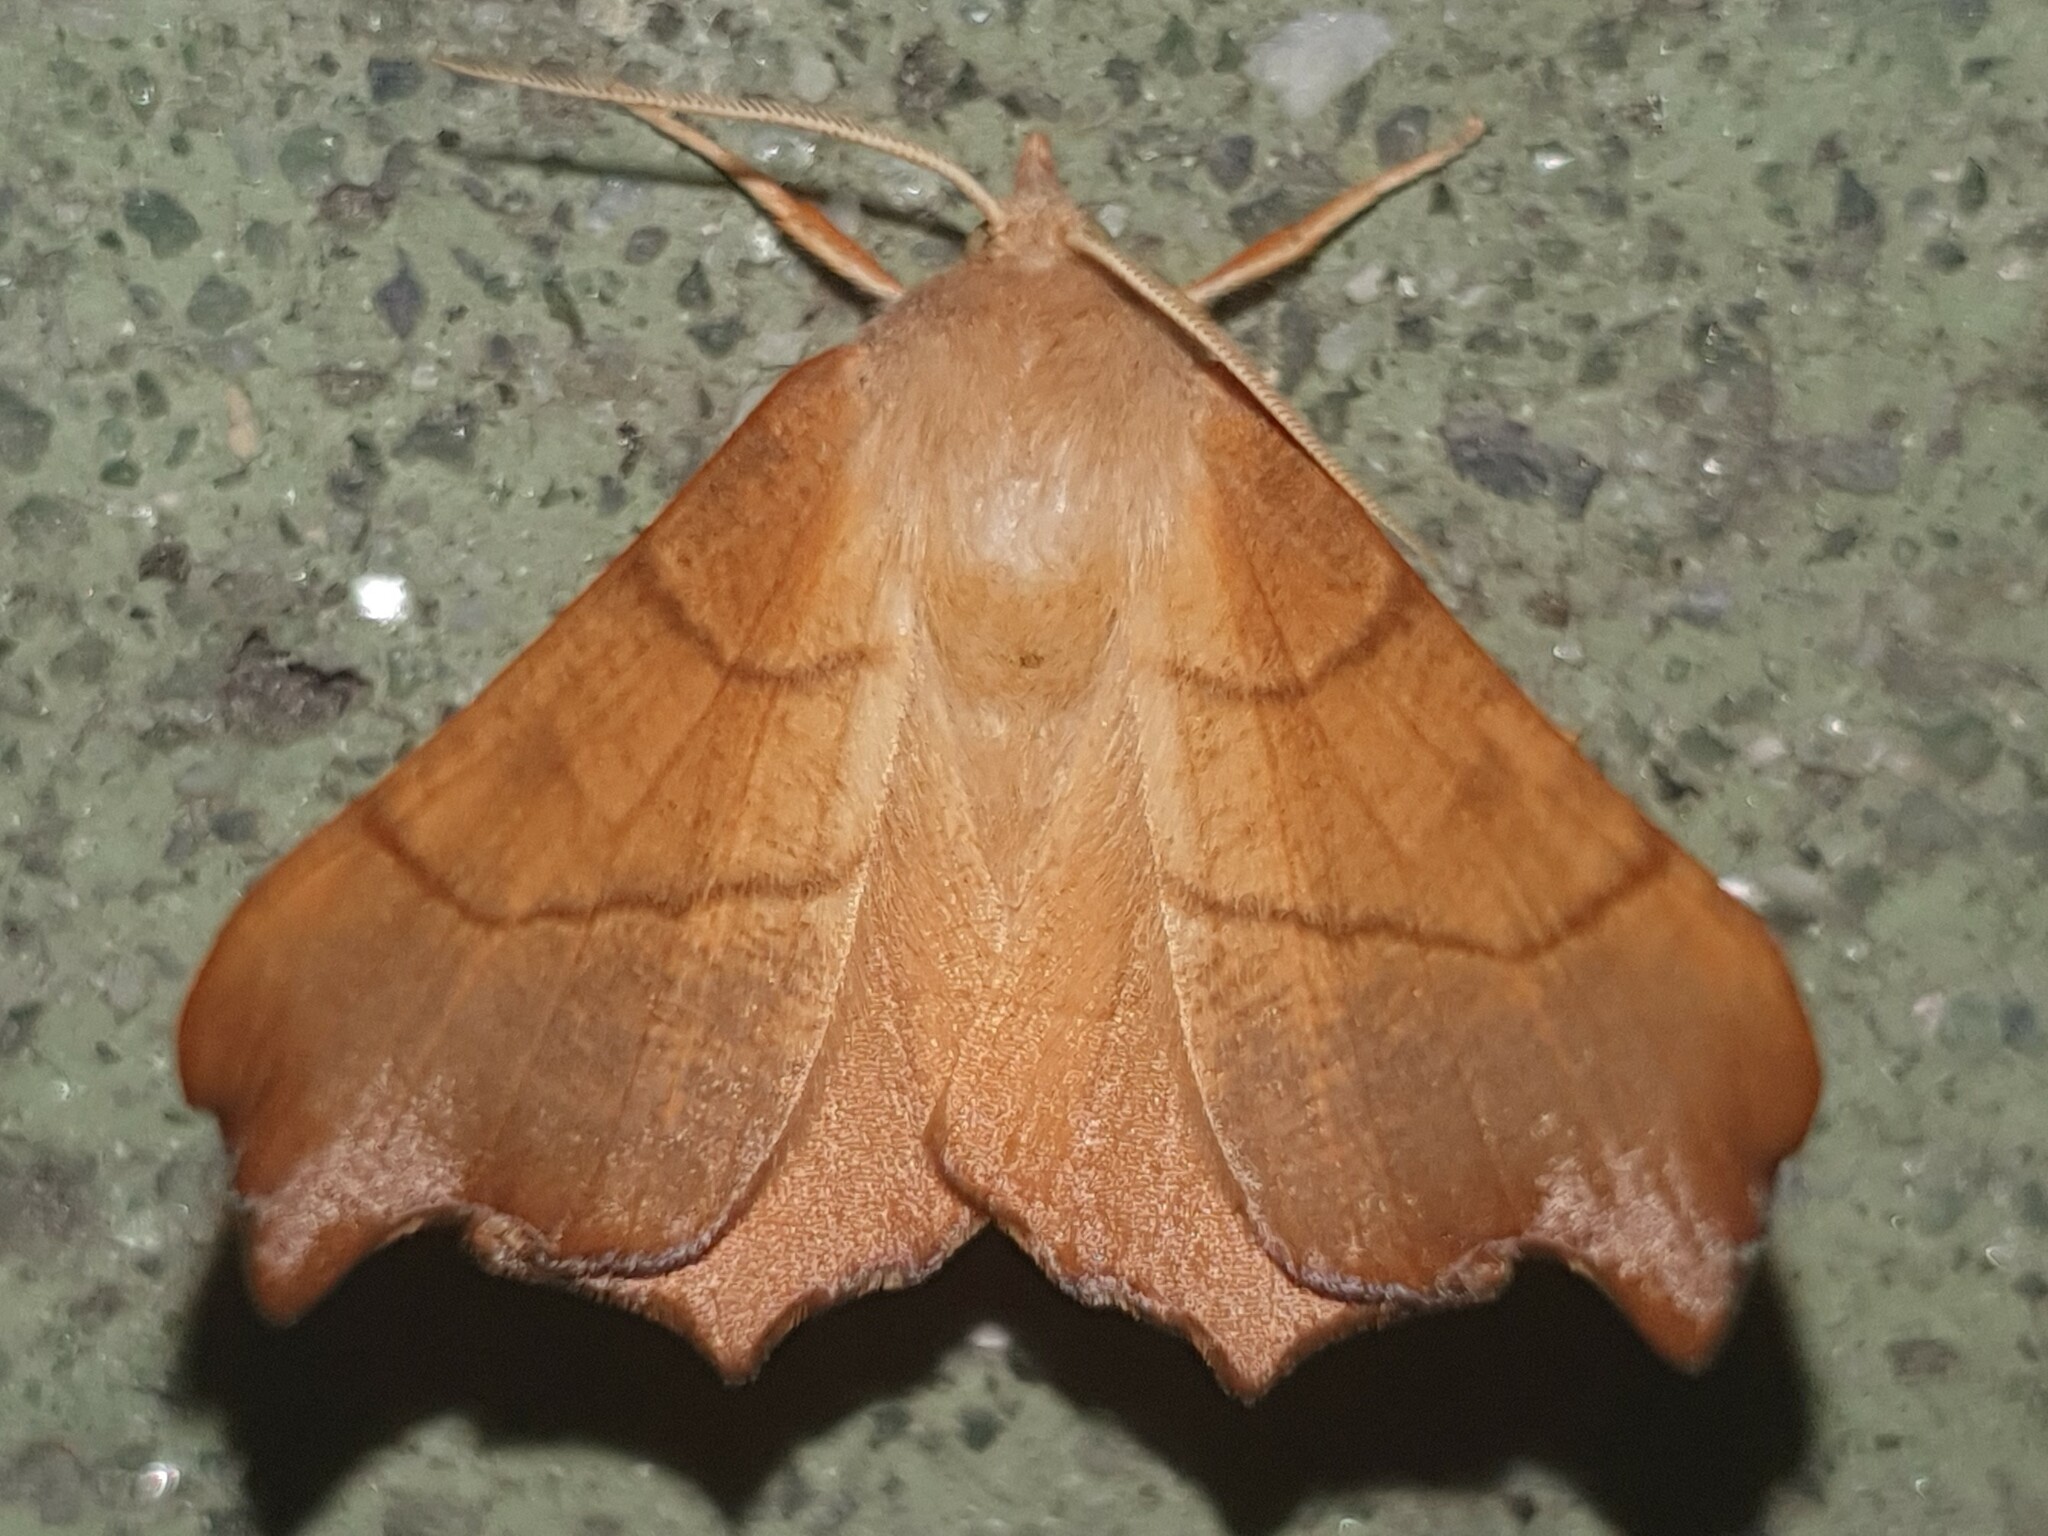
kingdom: Animalia
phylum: Arthropoda
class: Insecta
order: Lepidoptera
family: Geometridae
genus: Ennomos
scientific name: Ennomos fuscantaria
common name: Dusky thorn
